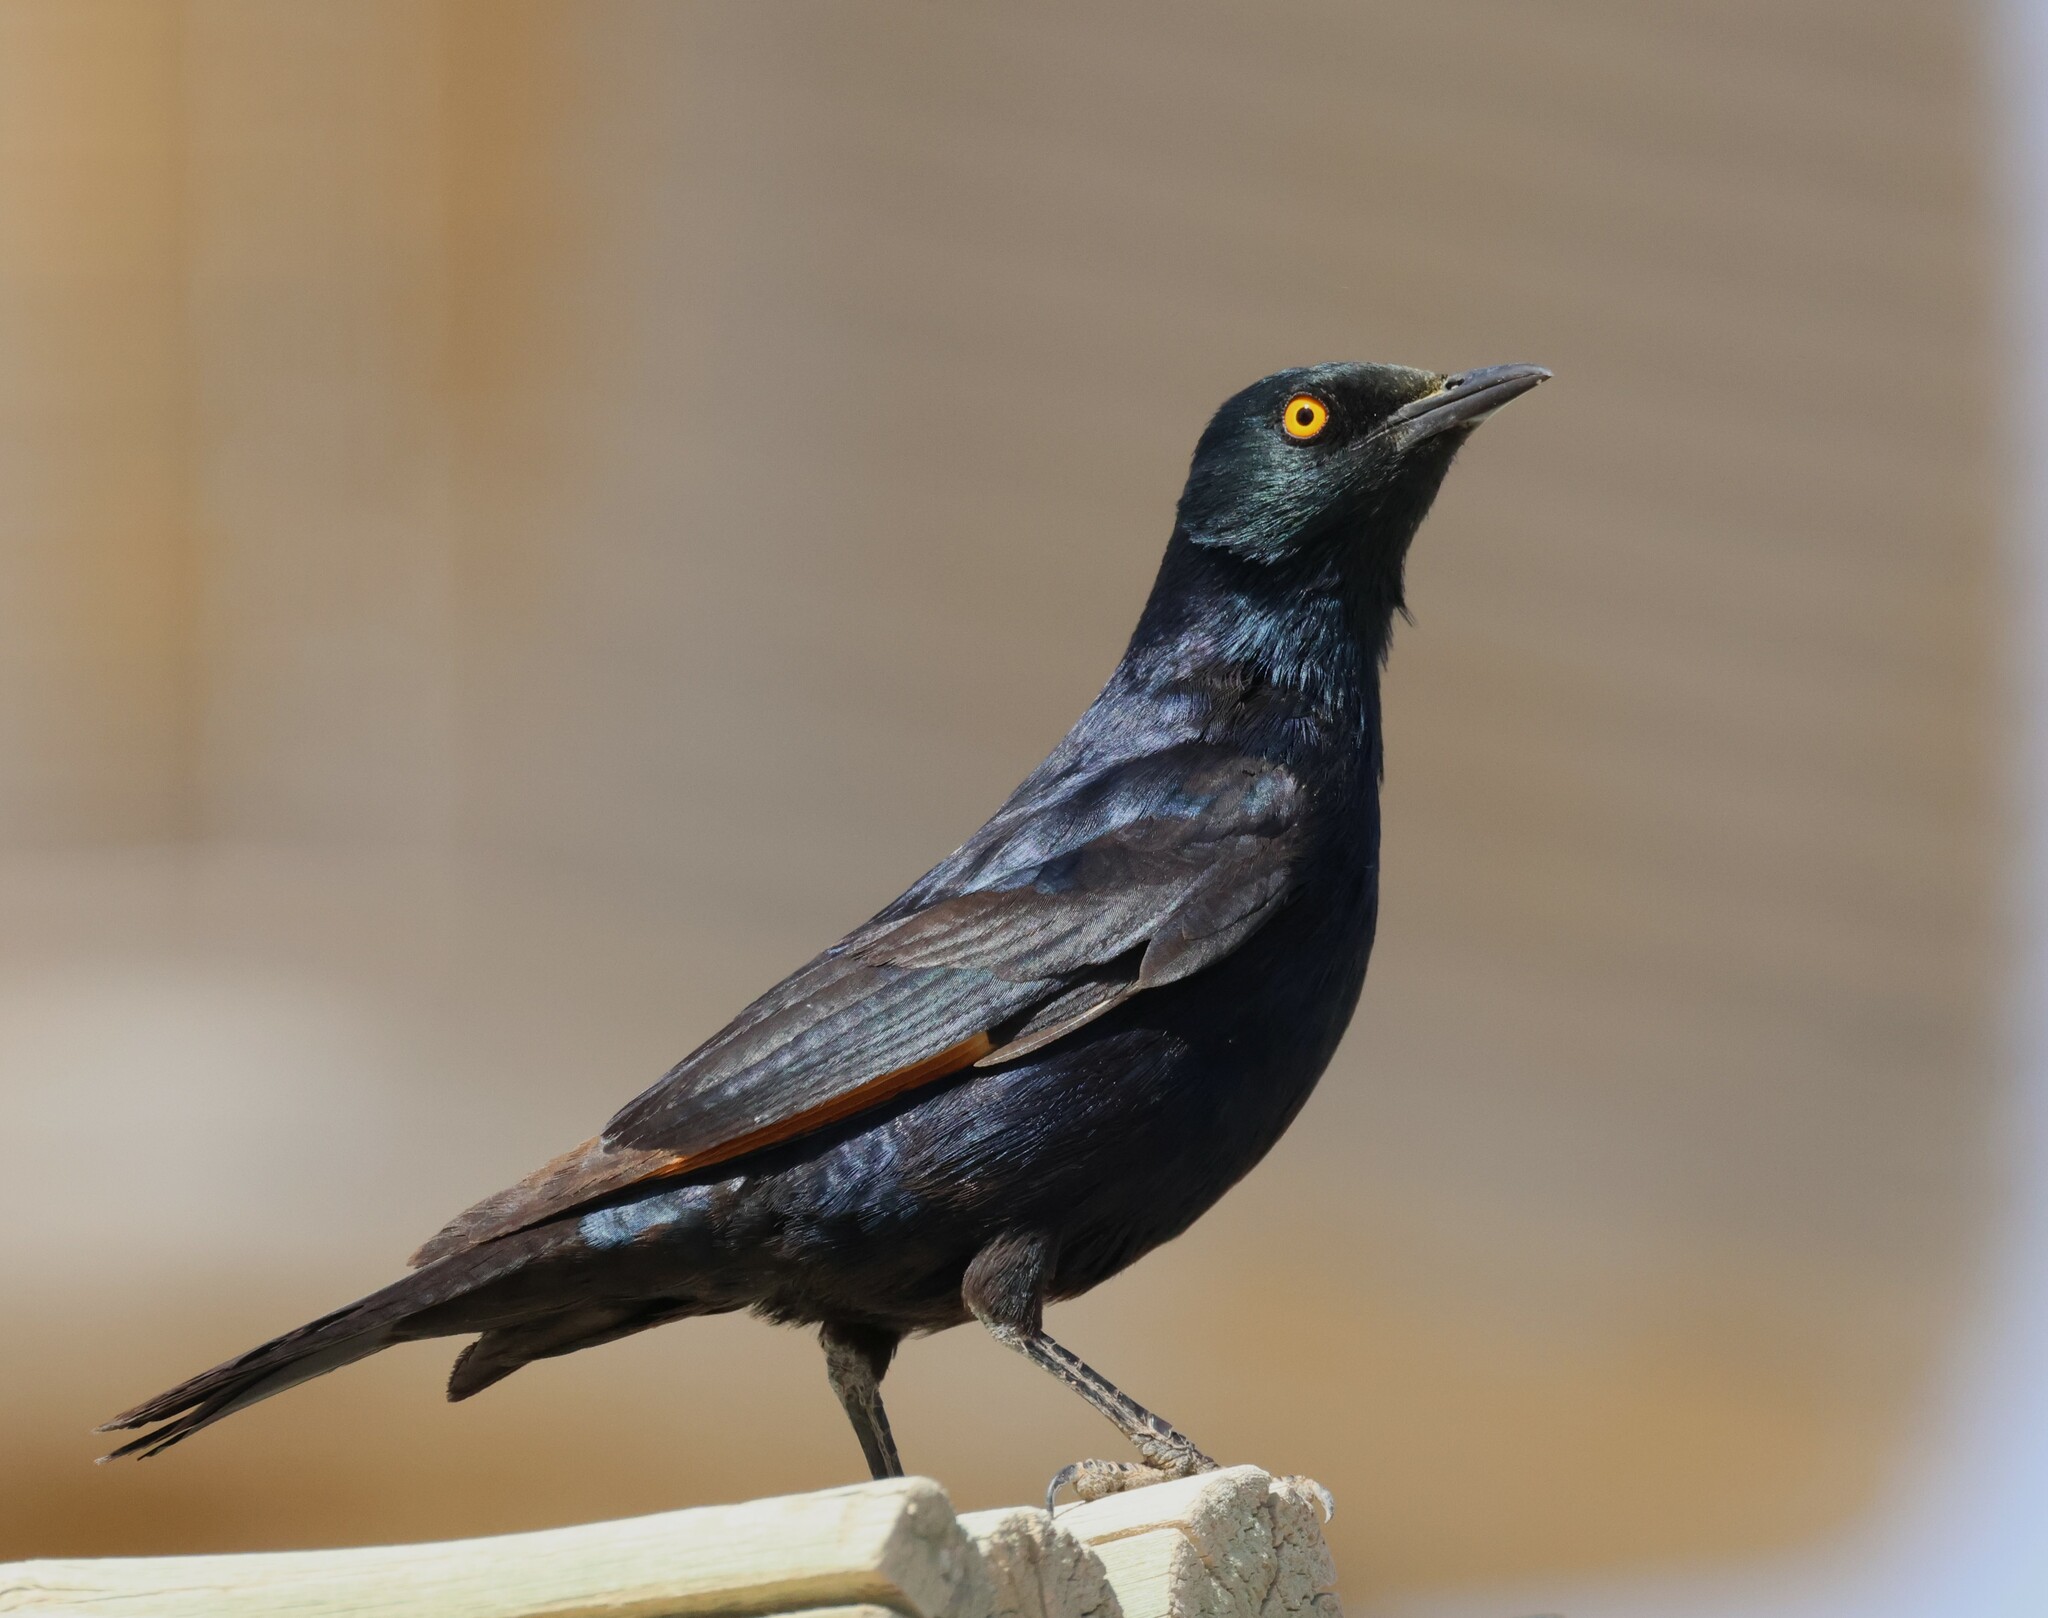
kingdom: Animalia
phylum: Chordata
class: Aves
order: Passeriformes
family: Sturnidae
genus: Onychognathus
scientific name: Onychognathus nabouroup
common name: Pale-winged starling
